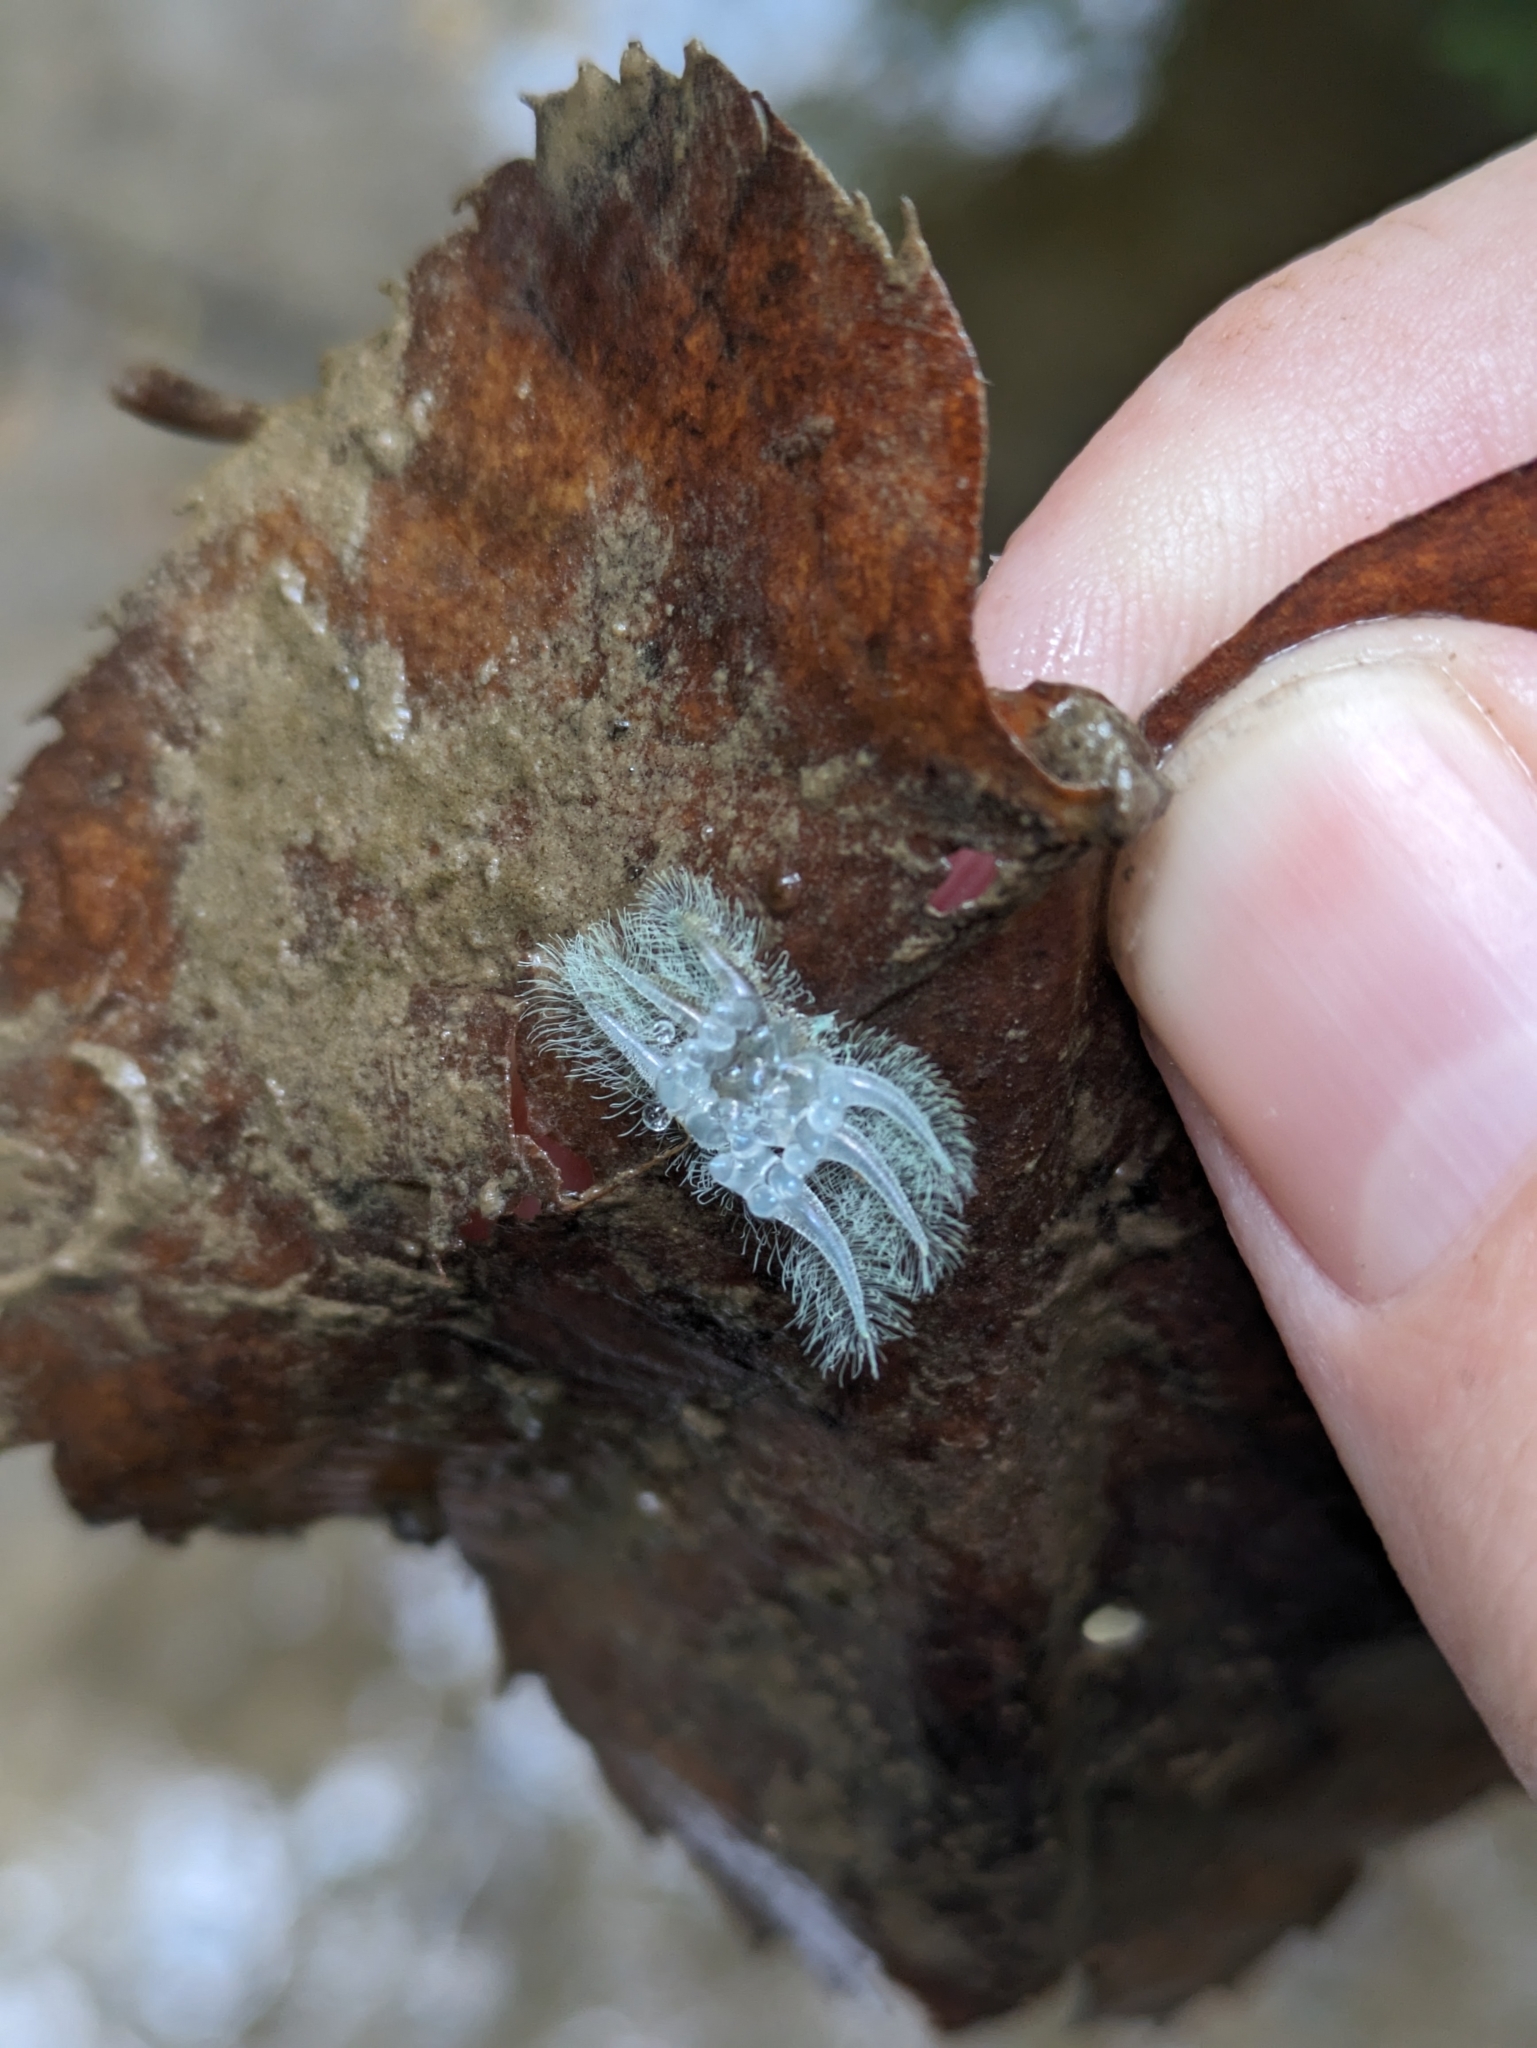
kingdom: Animalia
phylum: Arthropoda
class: Insecta
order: Lepidoptera
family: Limacodidae
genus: Isochaetes
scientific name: Isochaetes beutenmuelleri
